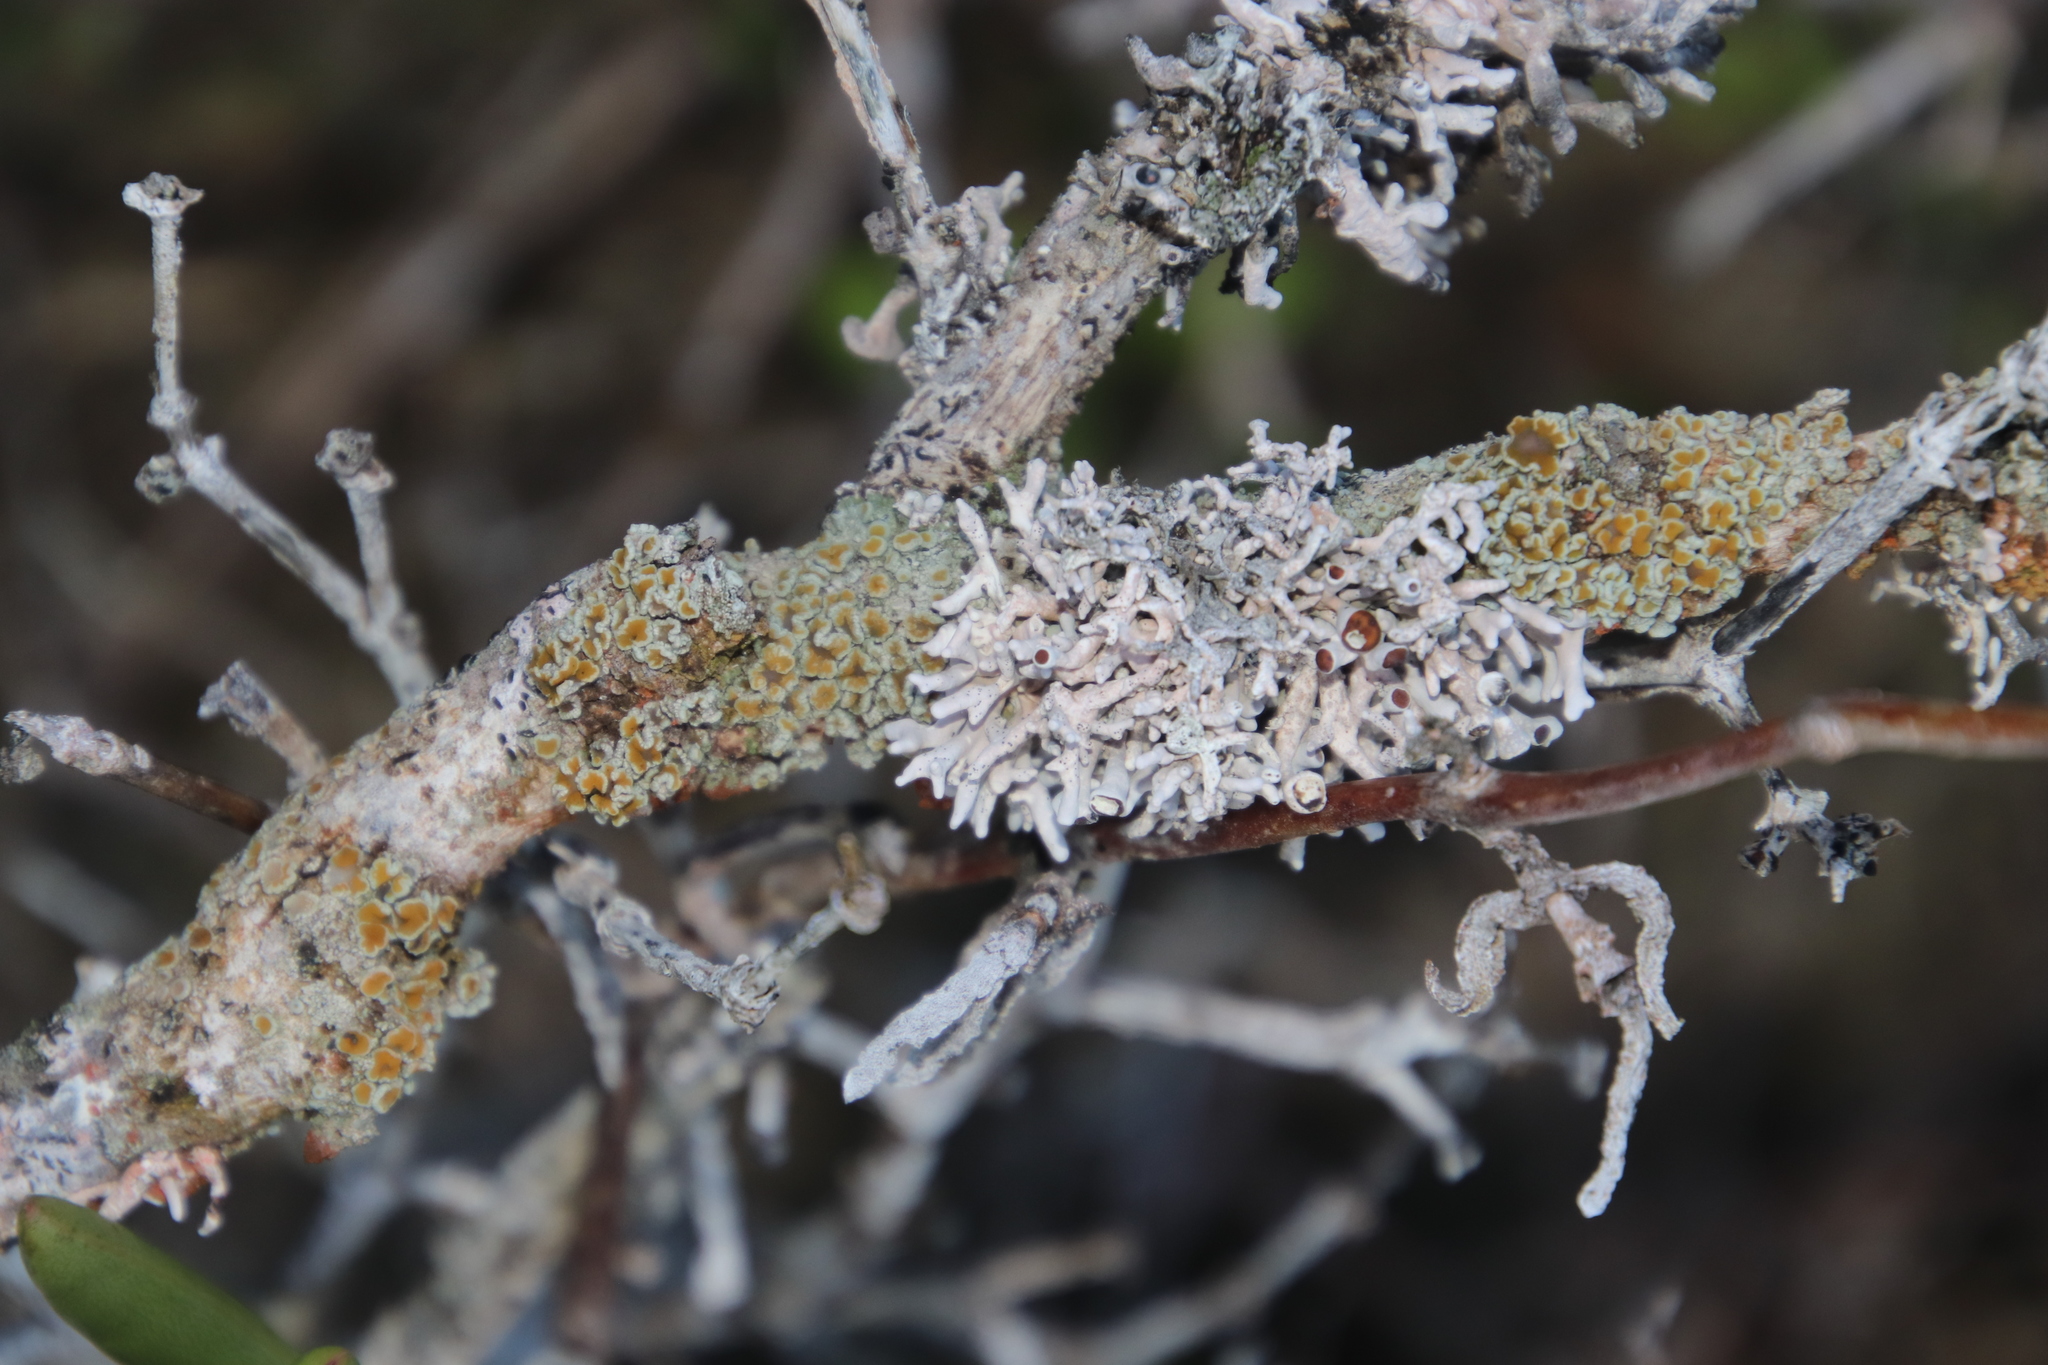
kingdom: Fungi
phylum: Ascomycota
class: Arthoniomycetes
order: Arthoniales
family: Opegraphaceae
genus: Combea
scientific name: Combea mollusca
